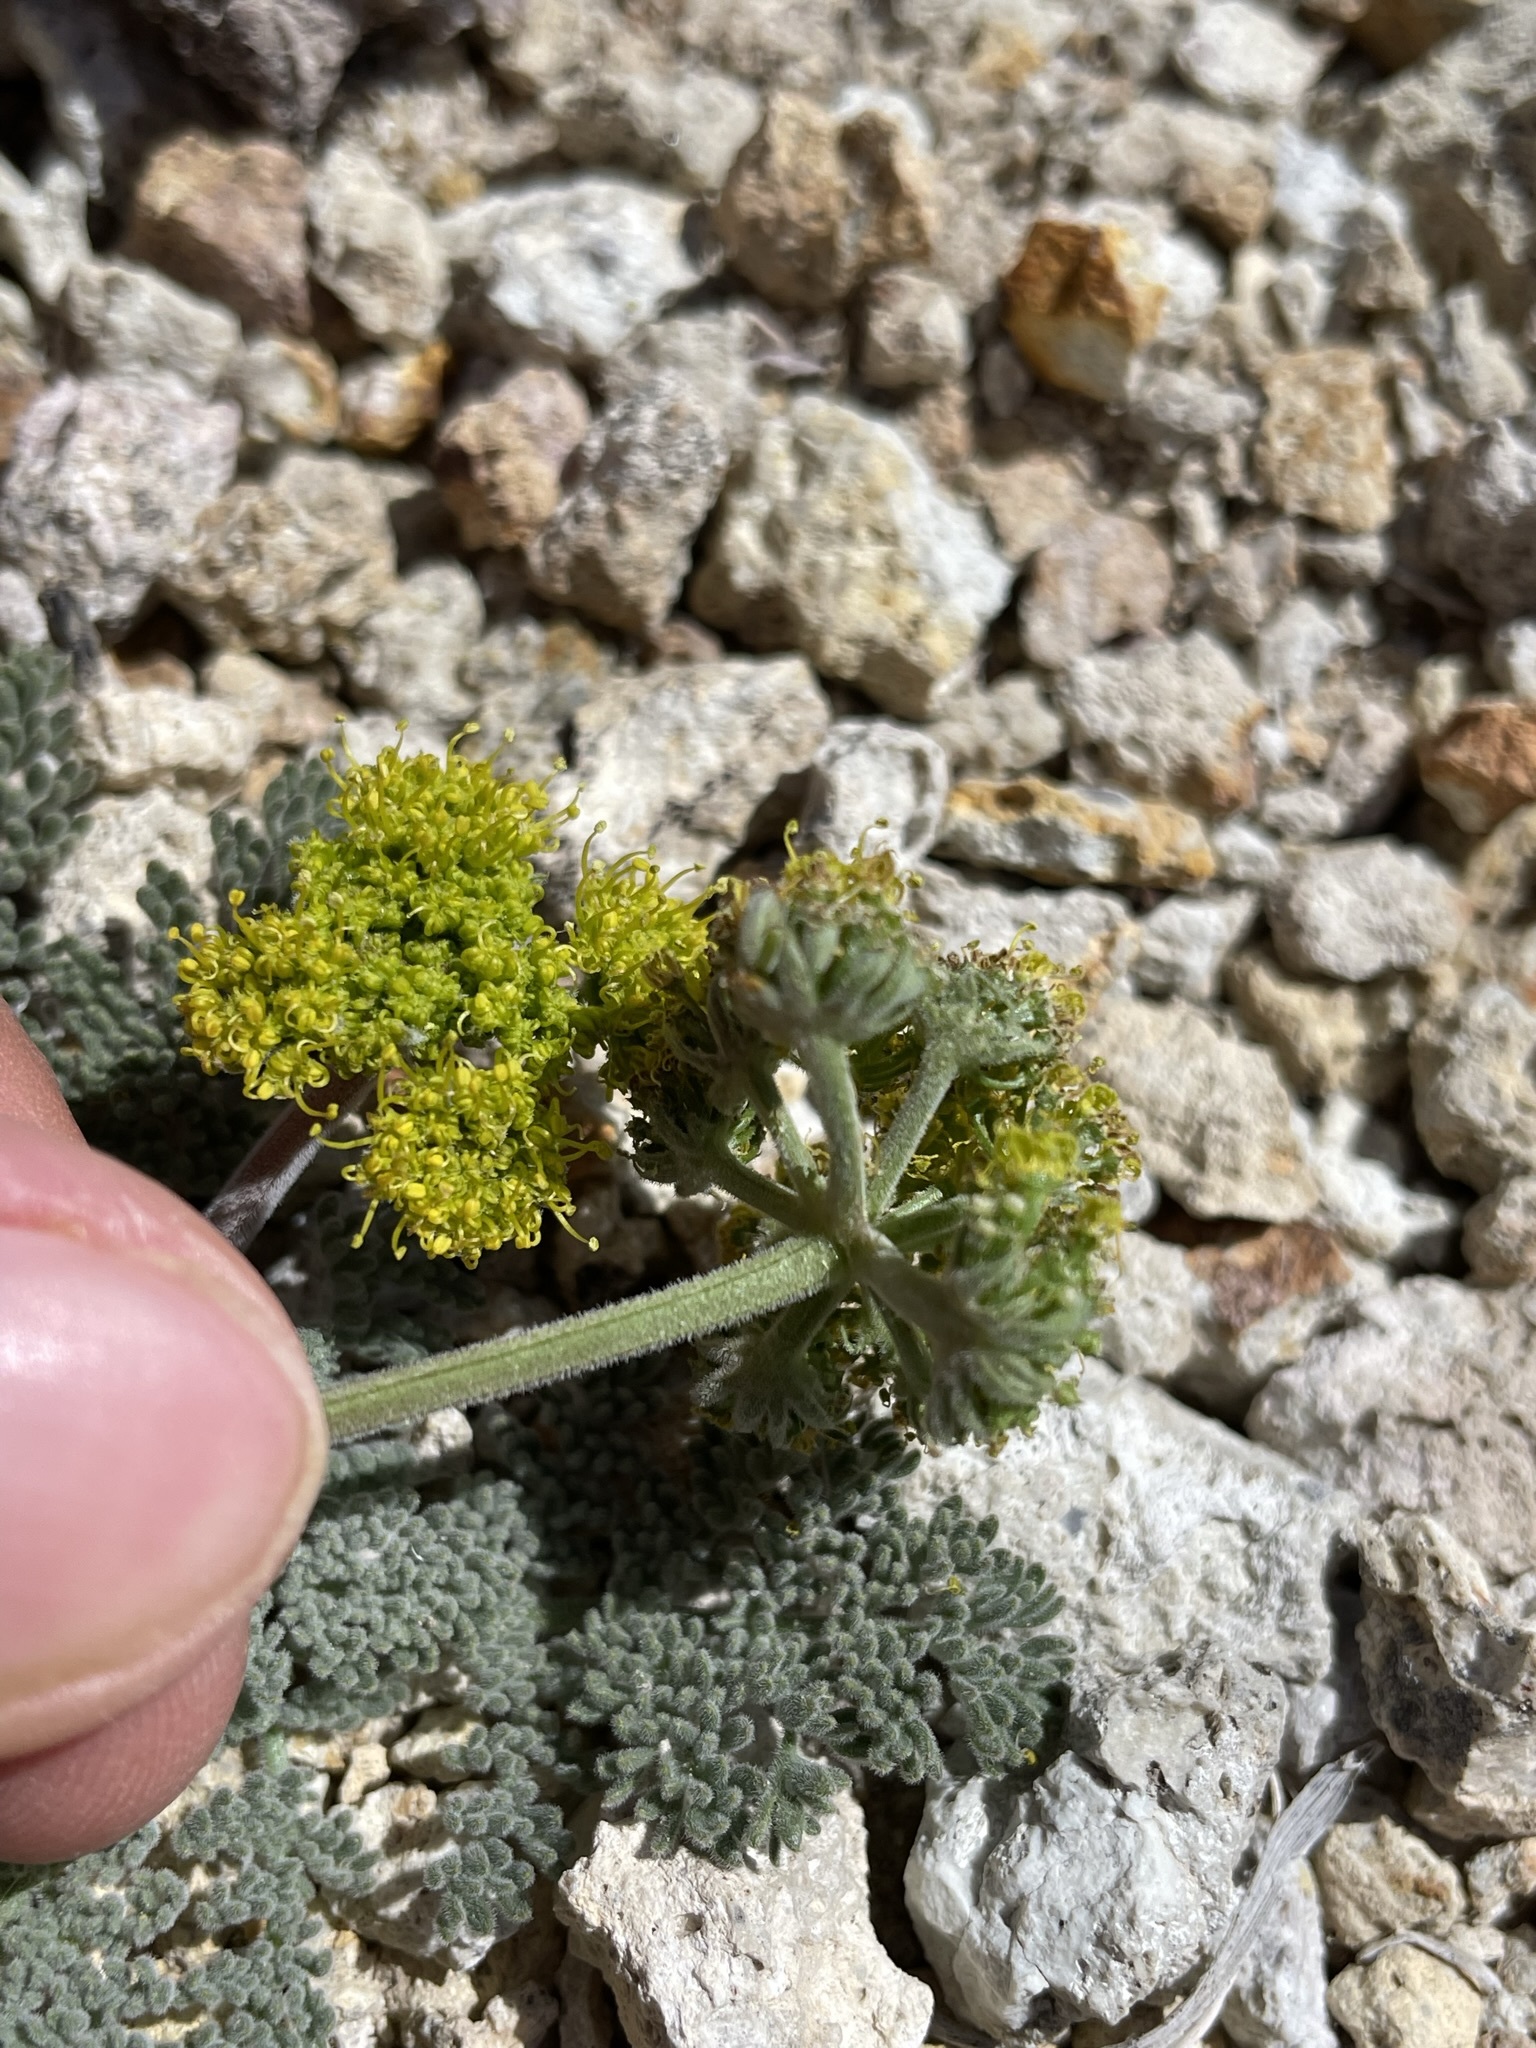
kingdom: Plantae
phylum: Tracheophyta
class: Magnoliopsida
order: Apiales
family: Apiaceae
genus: Lomatium
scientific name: Lomatium foeniculaceum
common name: Desert-parsley
